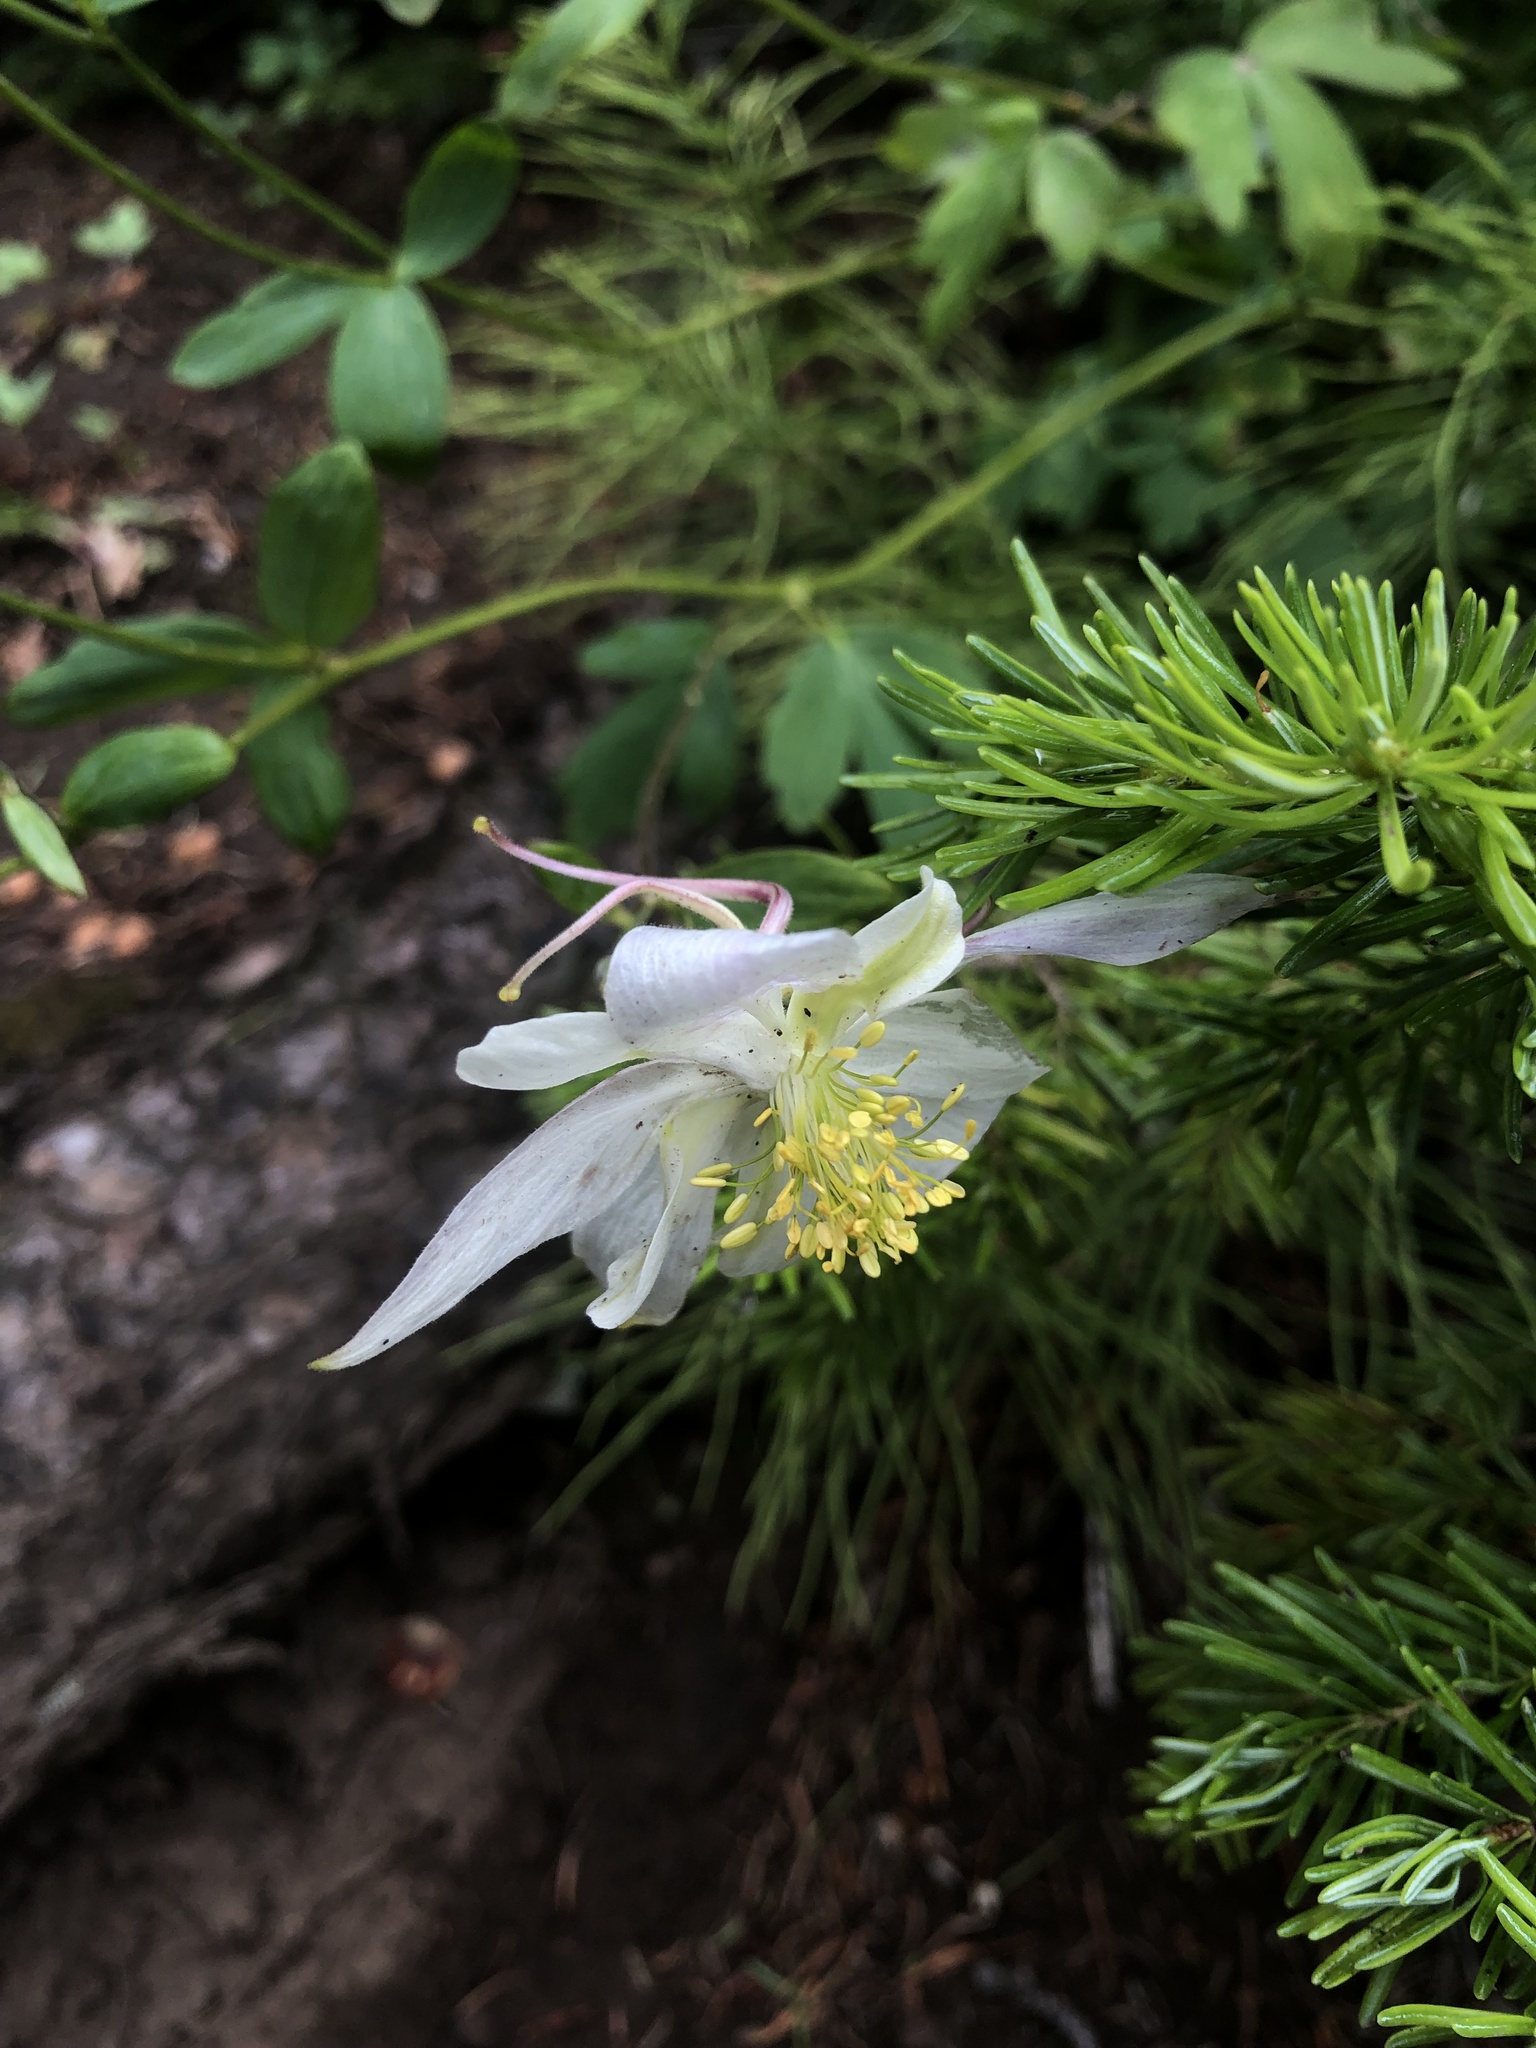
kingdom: Plantae
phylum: Tracheophyta
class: Magnoliopsida
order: Ranunculales
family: Ranunculaceae
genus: Aquilegia
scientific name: Aquilegia coerulea
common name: Rocky mountain columbine
